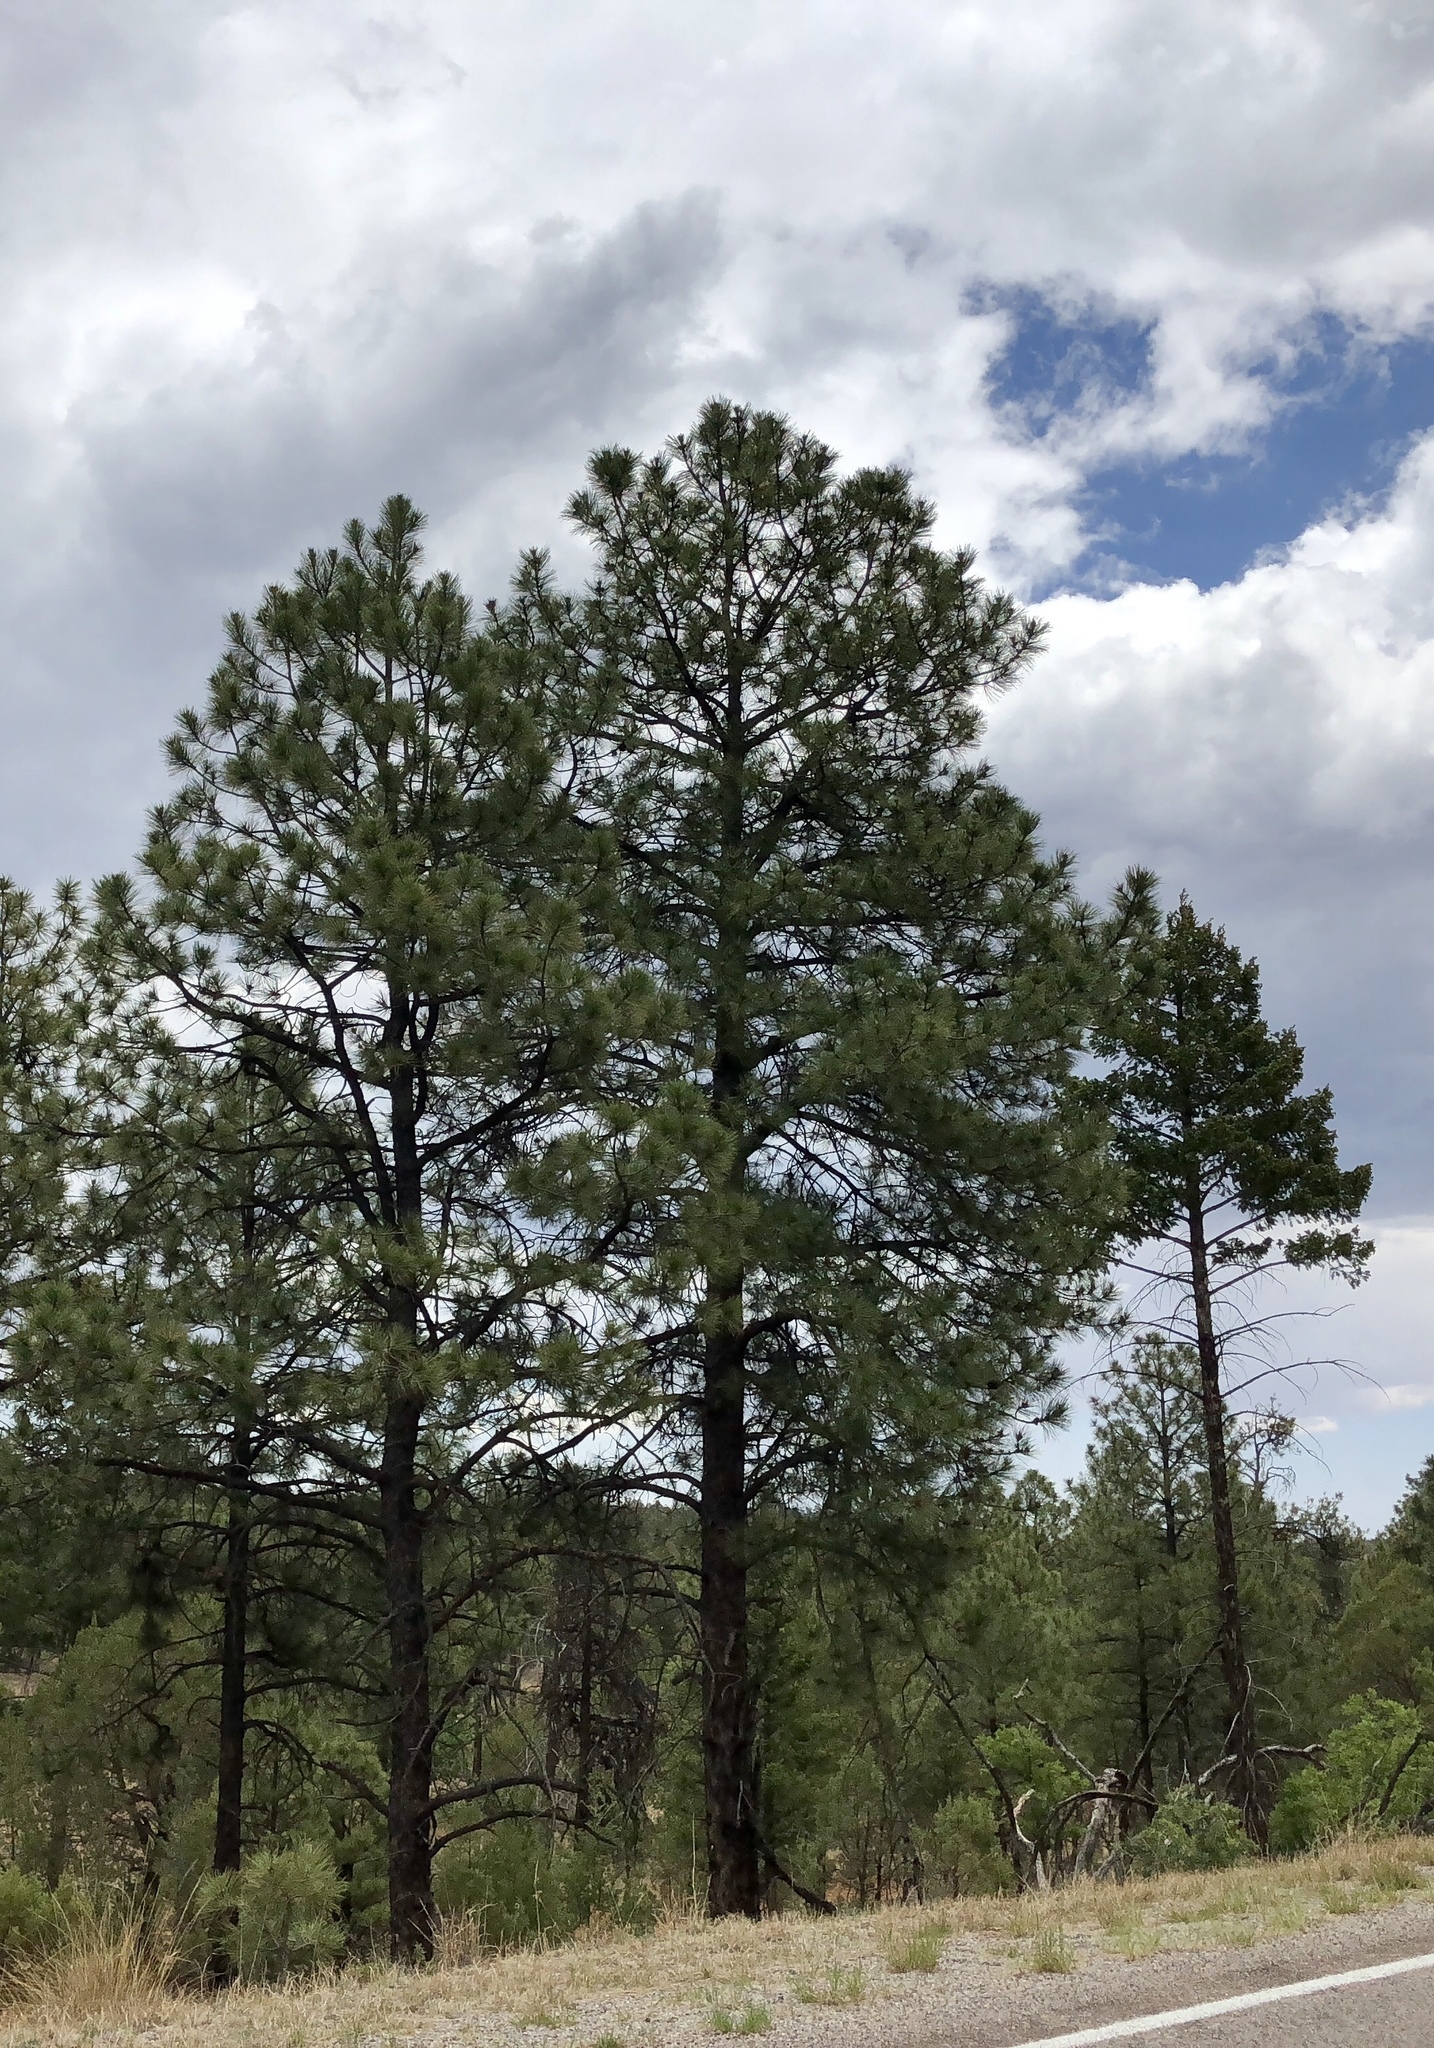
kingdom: Plantae
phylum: Tracheophyta
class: Pinopsida
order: Pinales
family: Pinaceae
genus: Pinus
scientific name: Pinus ponderosa
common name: Western yellow-pine
